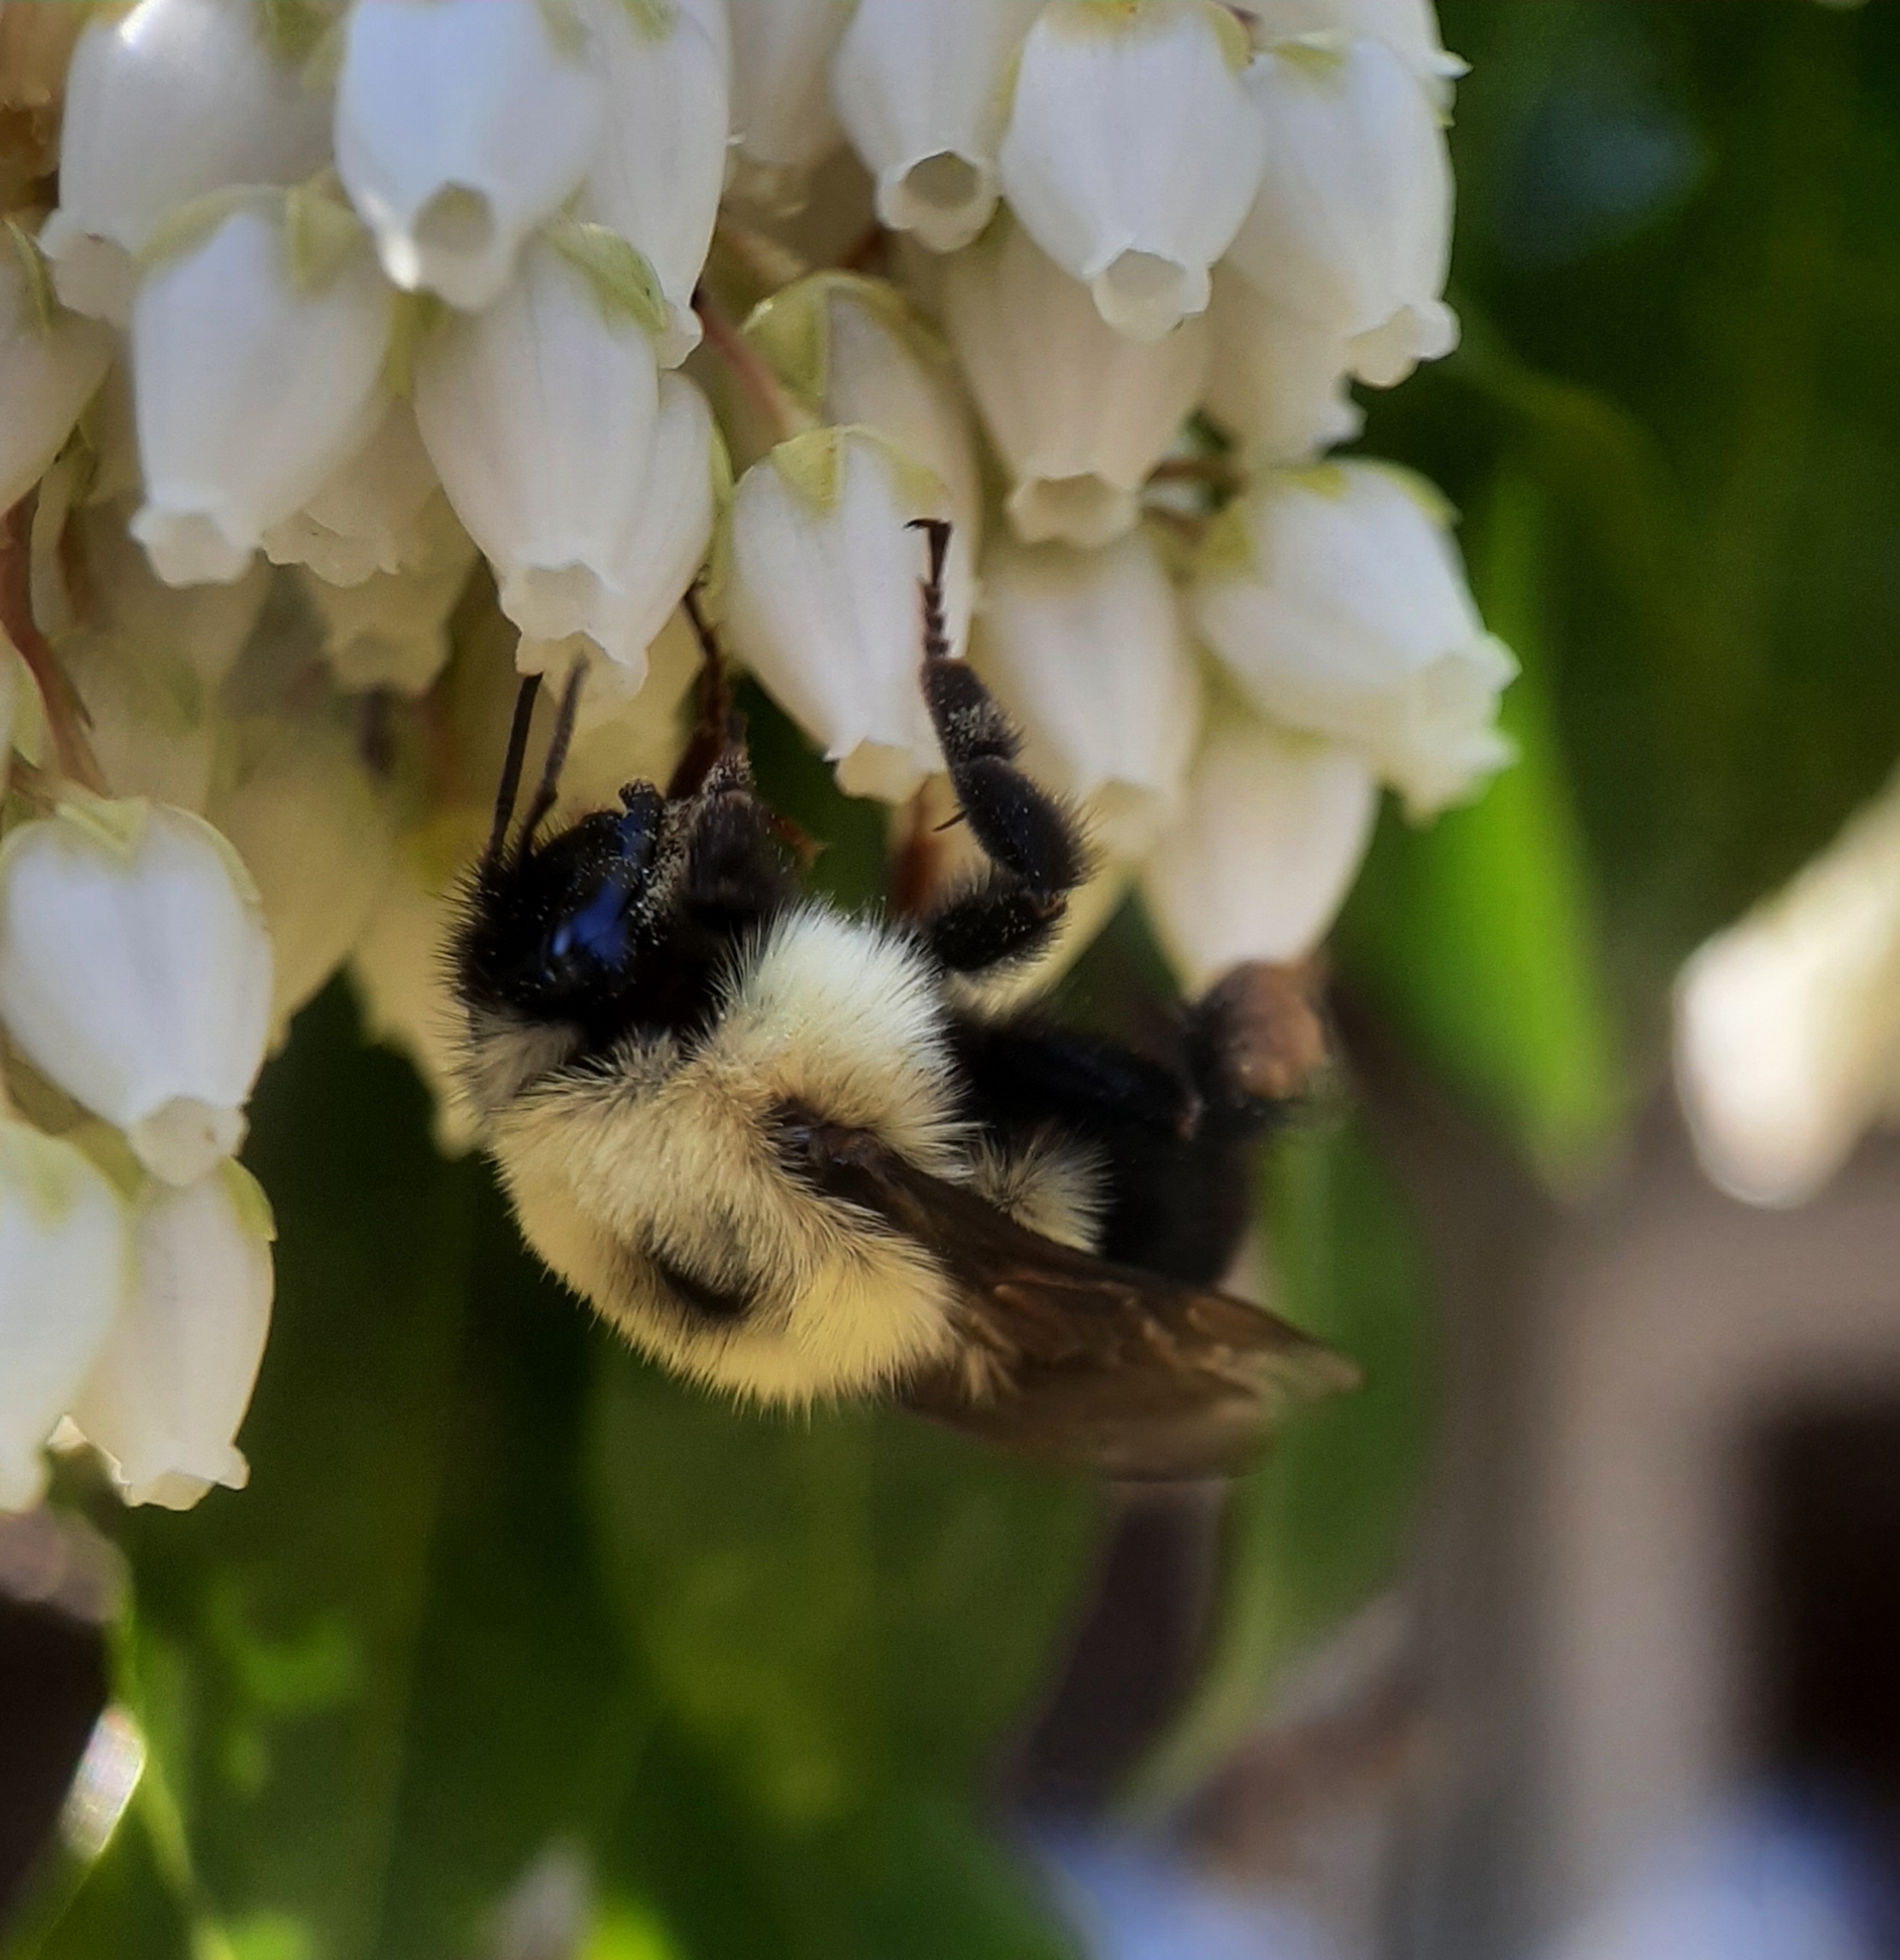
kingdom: Animalia
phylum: Arthropoda
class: Insecta
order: Hymenoptera
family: Apidae
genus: Bombus
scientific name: Bombus bimaculatus
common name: Two-spotted bumble bee
